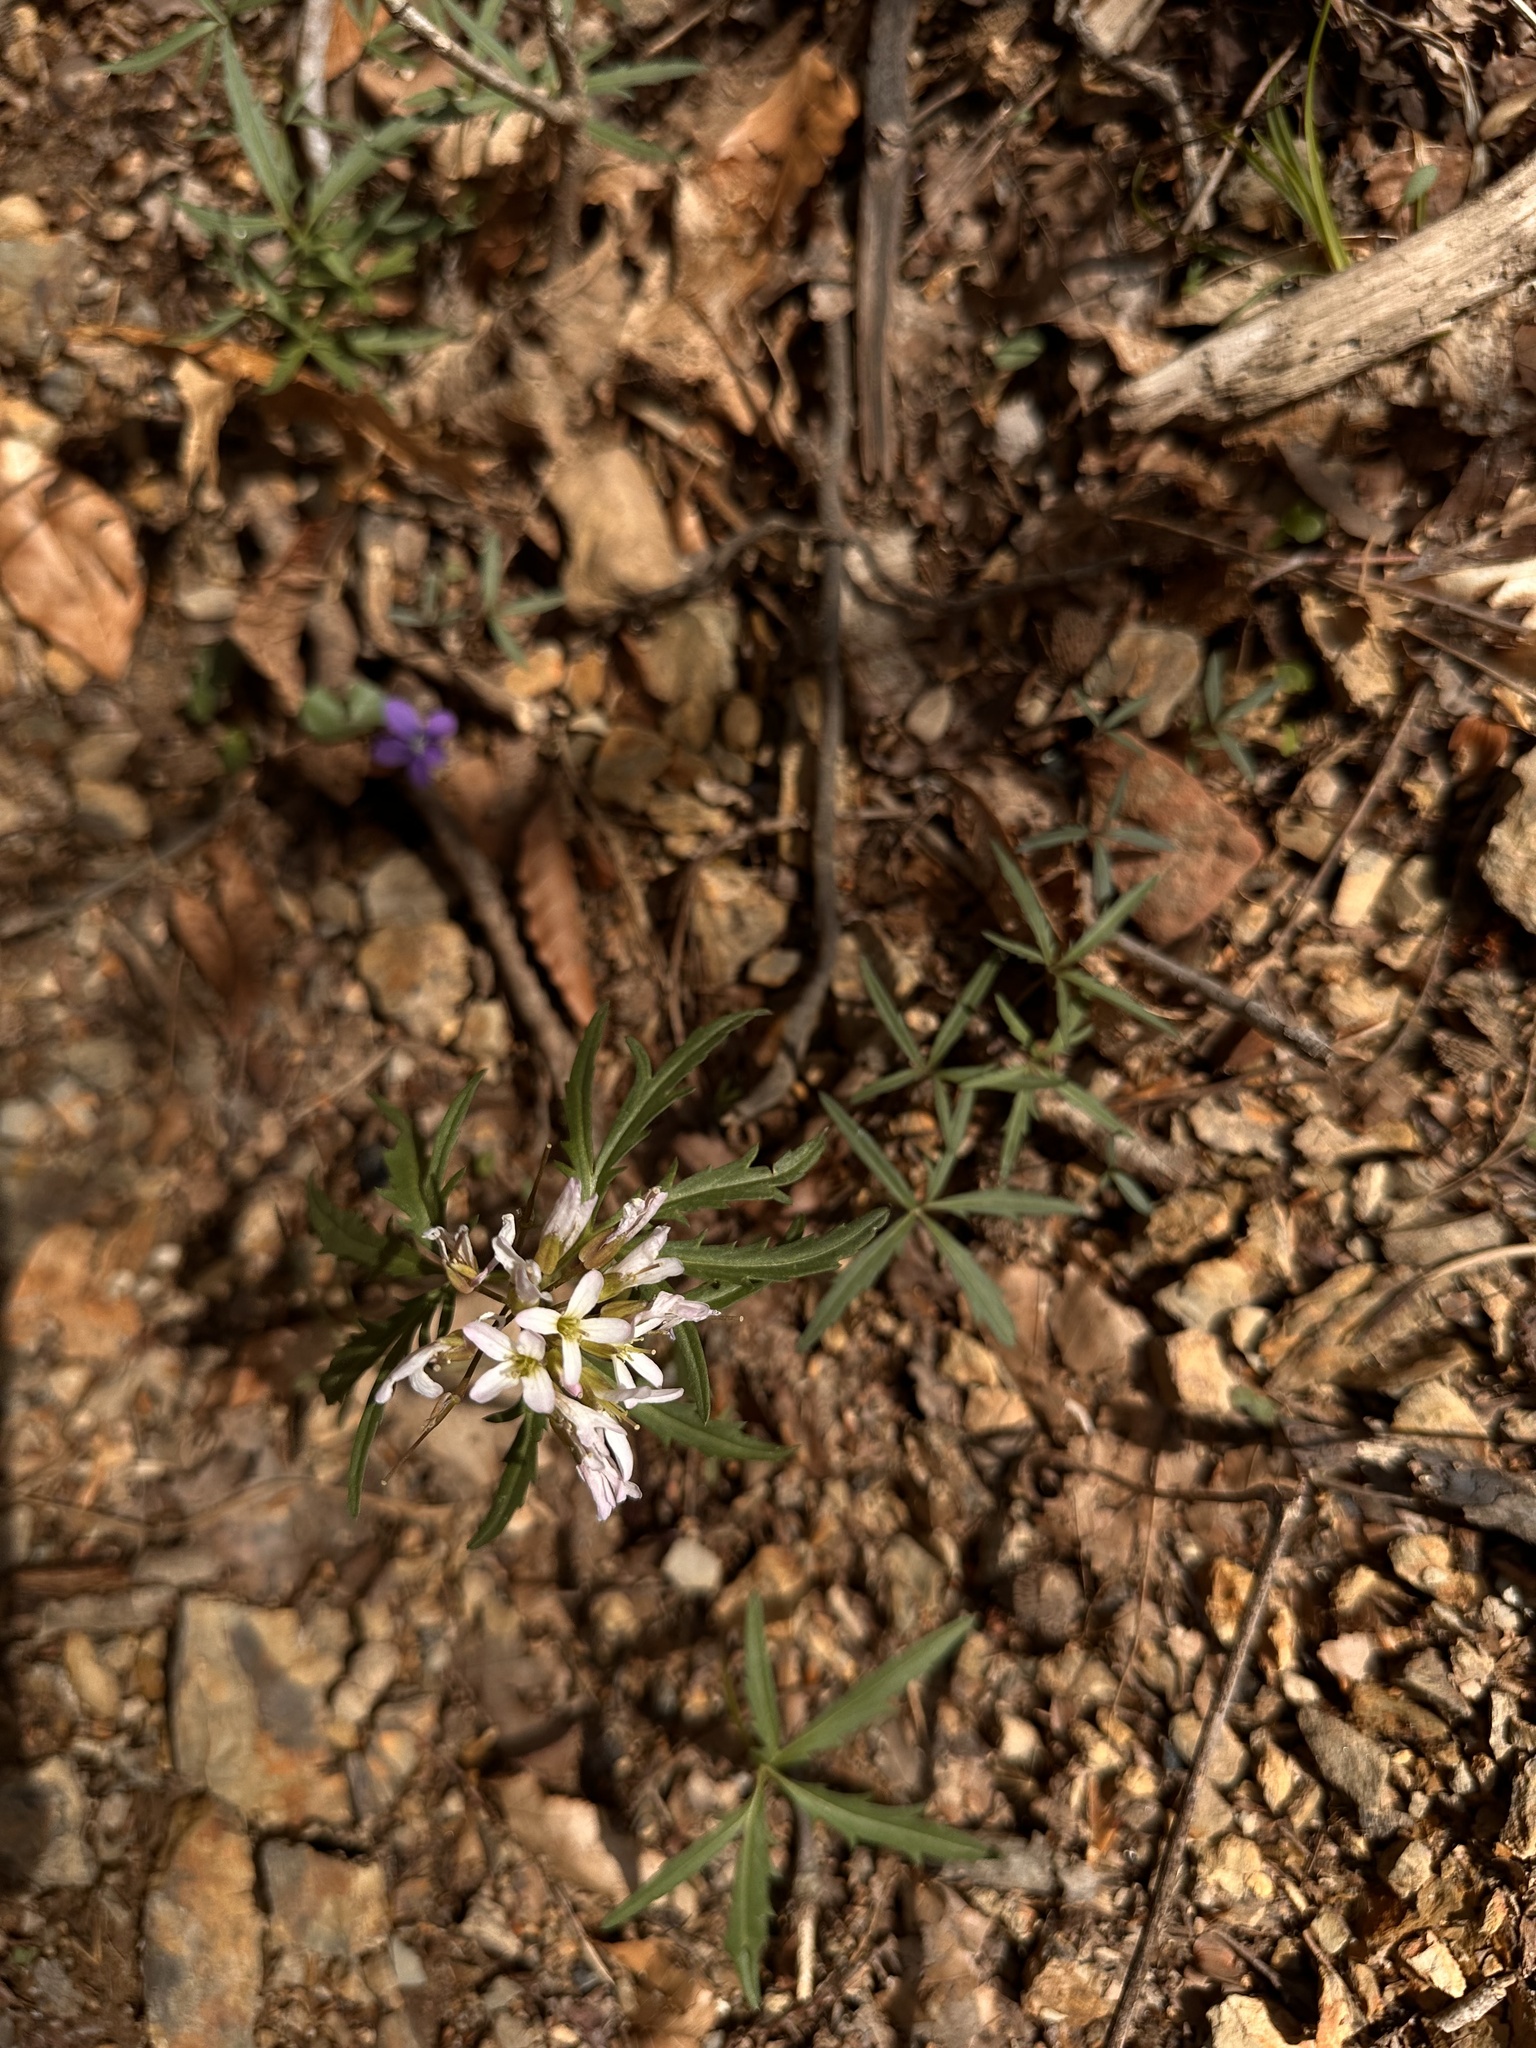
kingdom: Plantae
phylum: Tracheophyta
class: Magnoliopsida
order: Brassicales
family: Brassicaceae
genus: Cardamine
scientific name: Cardamine concatenata
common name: Cut-leaf toothcup
